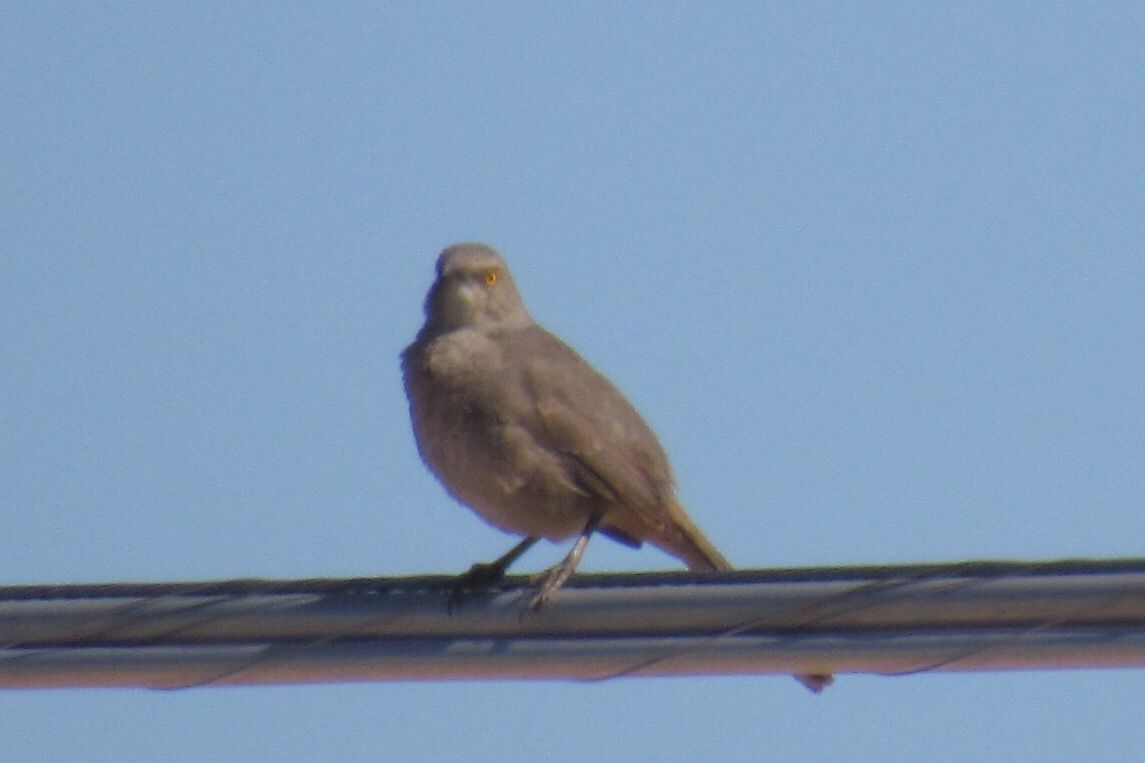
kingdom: Animalia
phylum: Chordata
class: Aves
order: Passeriformes
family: Mimidae
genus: Toxostoma
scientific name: Toxostoma curvirostre
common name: Curve-billed thrasher
